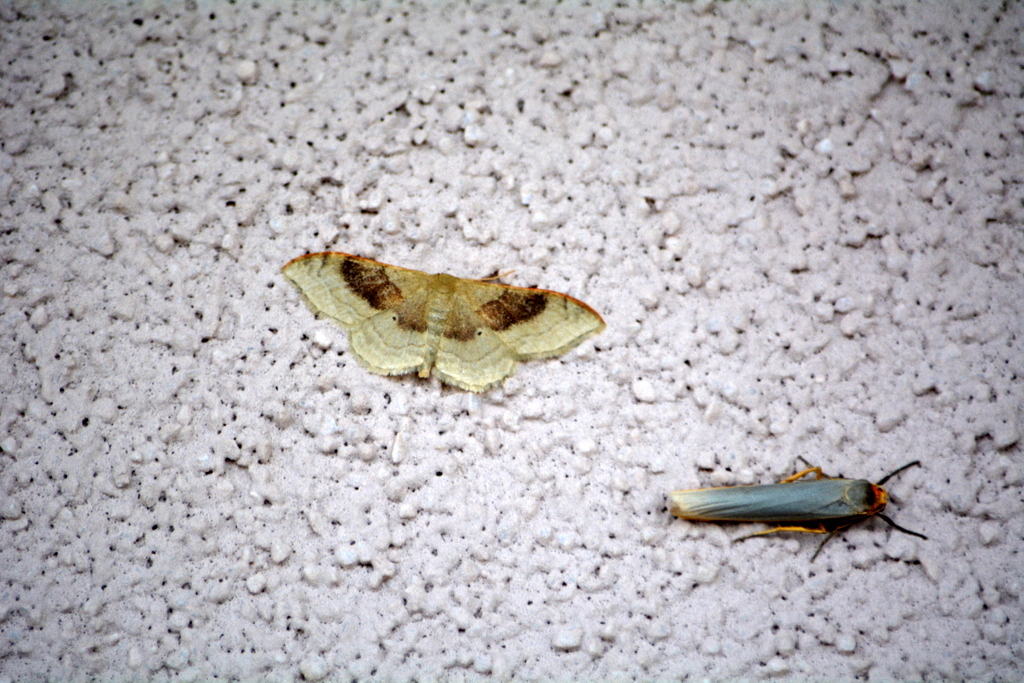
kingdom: Animalia
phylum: Arthropoda
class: Insecta
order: Lepidoptera
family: Geometridae
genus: Idaea
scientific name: Idaea degeneraria
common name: Portland ribbon wave
